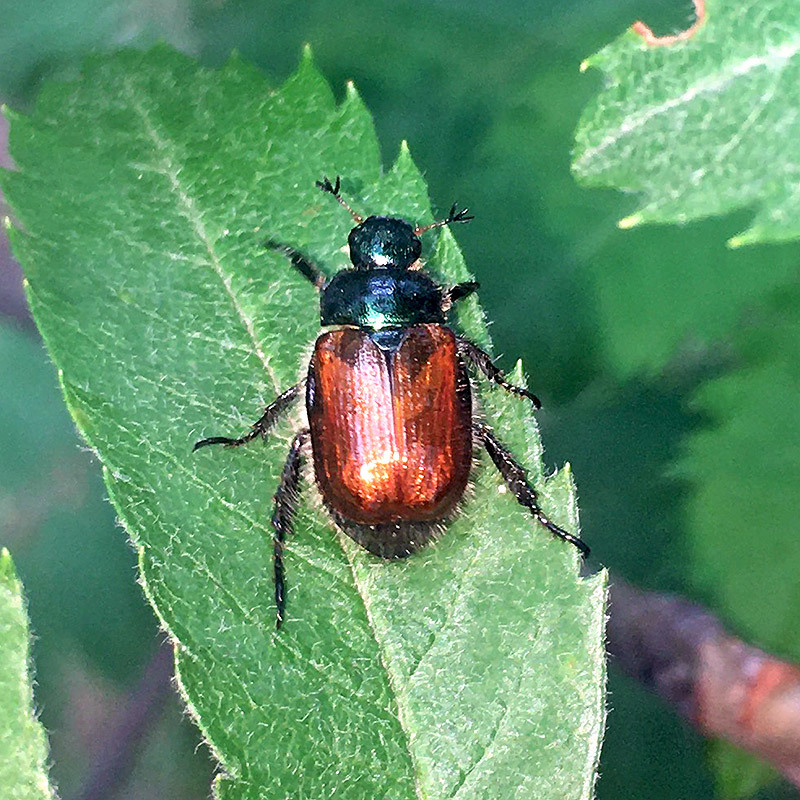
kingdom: Animalia
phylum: Arthropoda
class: Insecta
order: Coleoptera
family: Scarabaeidae
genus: Phyllopertha
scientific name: Phyllopertha horticola
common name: Garden chafer
